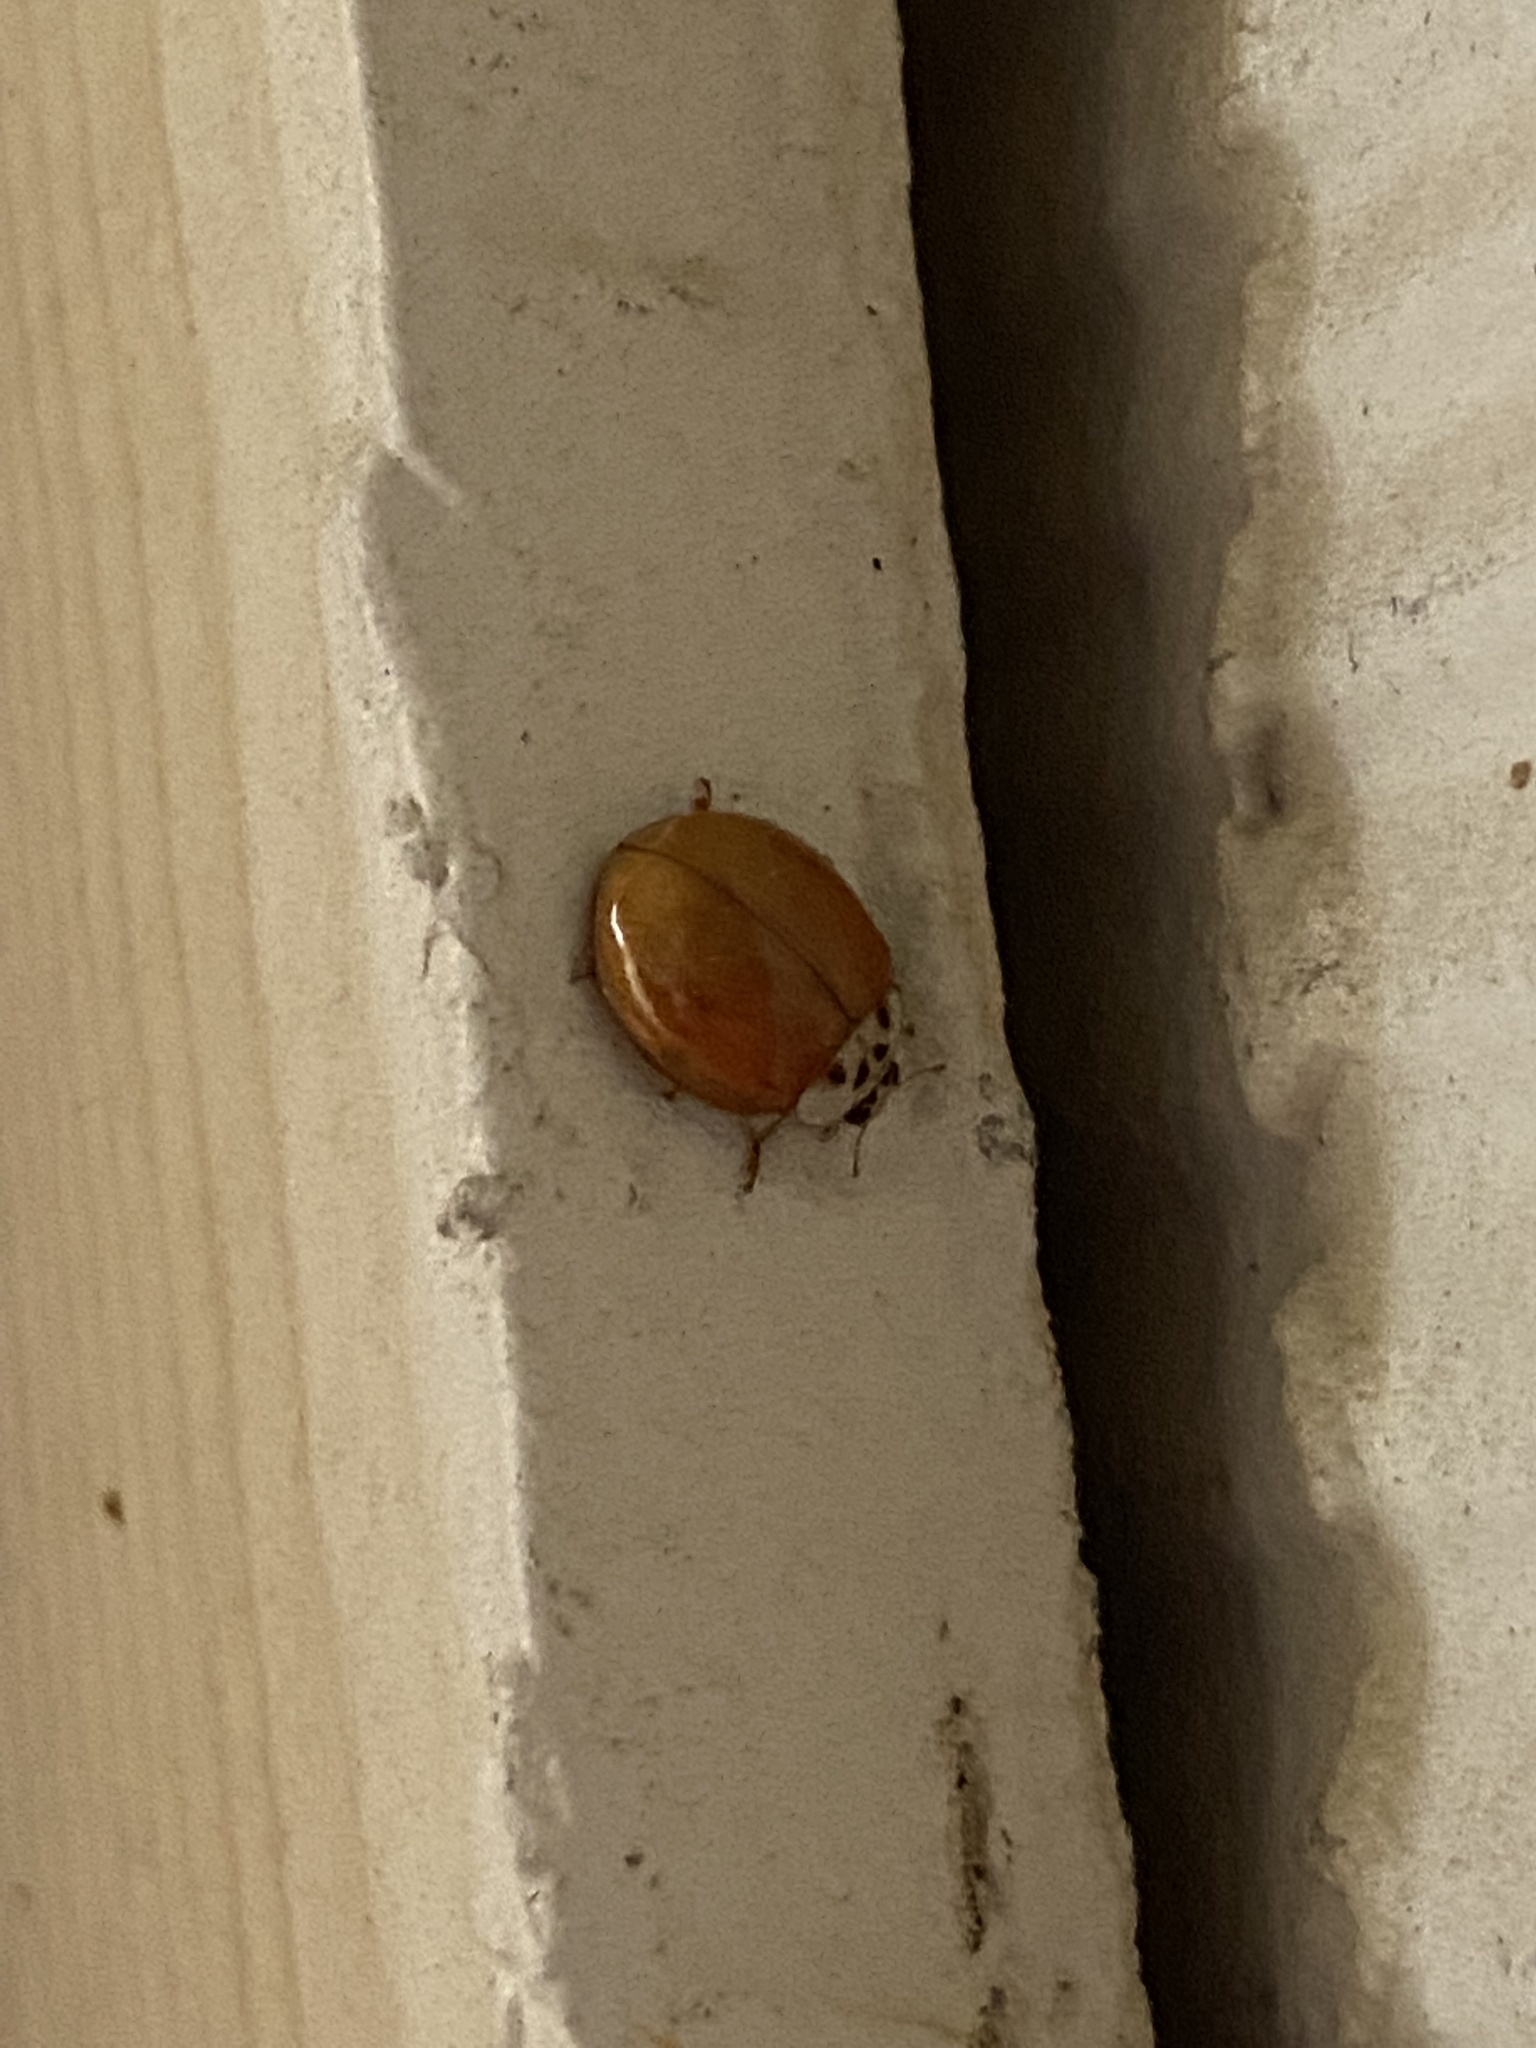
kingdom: Animalia
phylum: Arthropoda
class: Insecta
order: Coleoptera
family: Coccinellidae
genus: Harmonia
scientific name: Harmonia axyridis
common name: Harlequin ladybird
